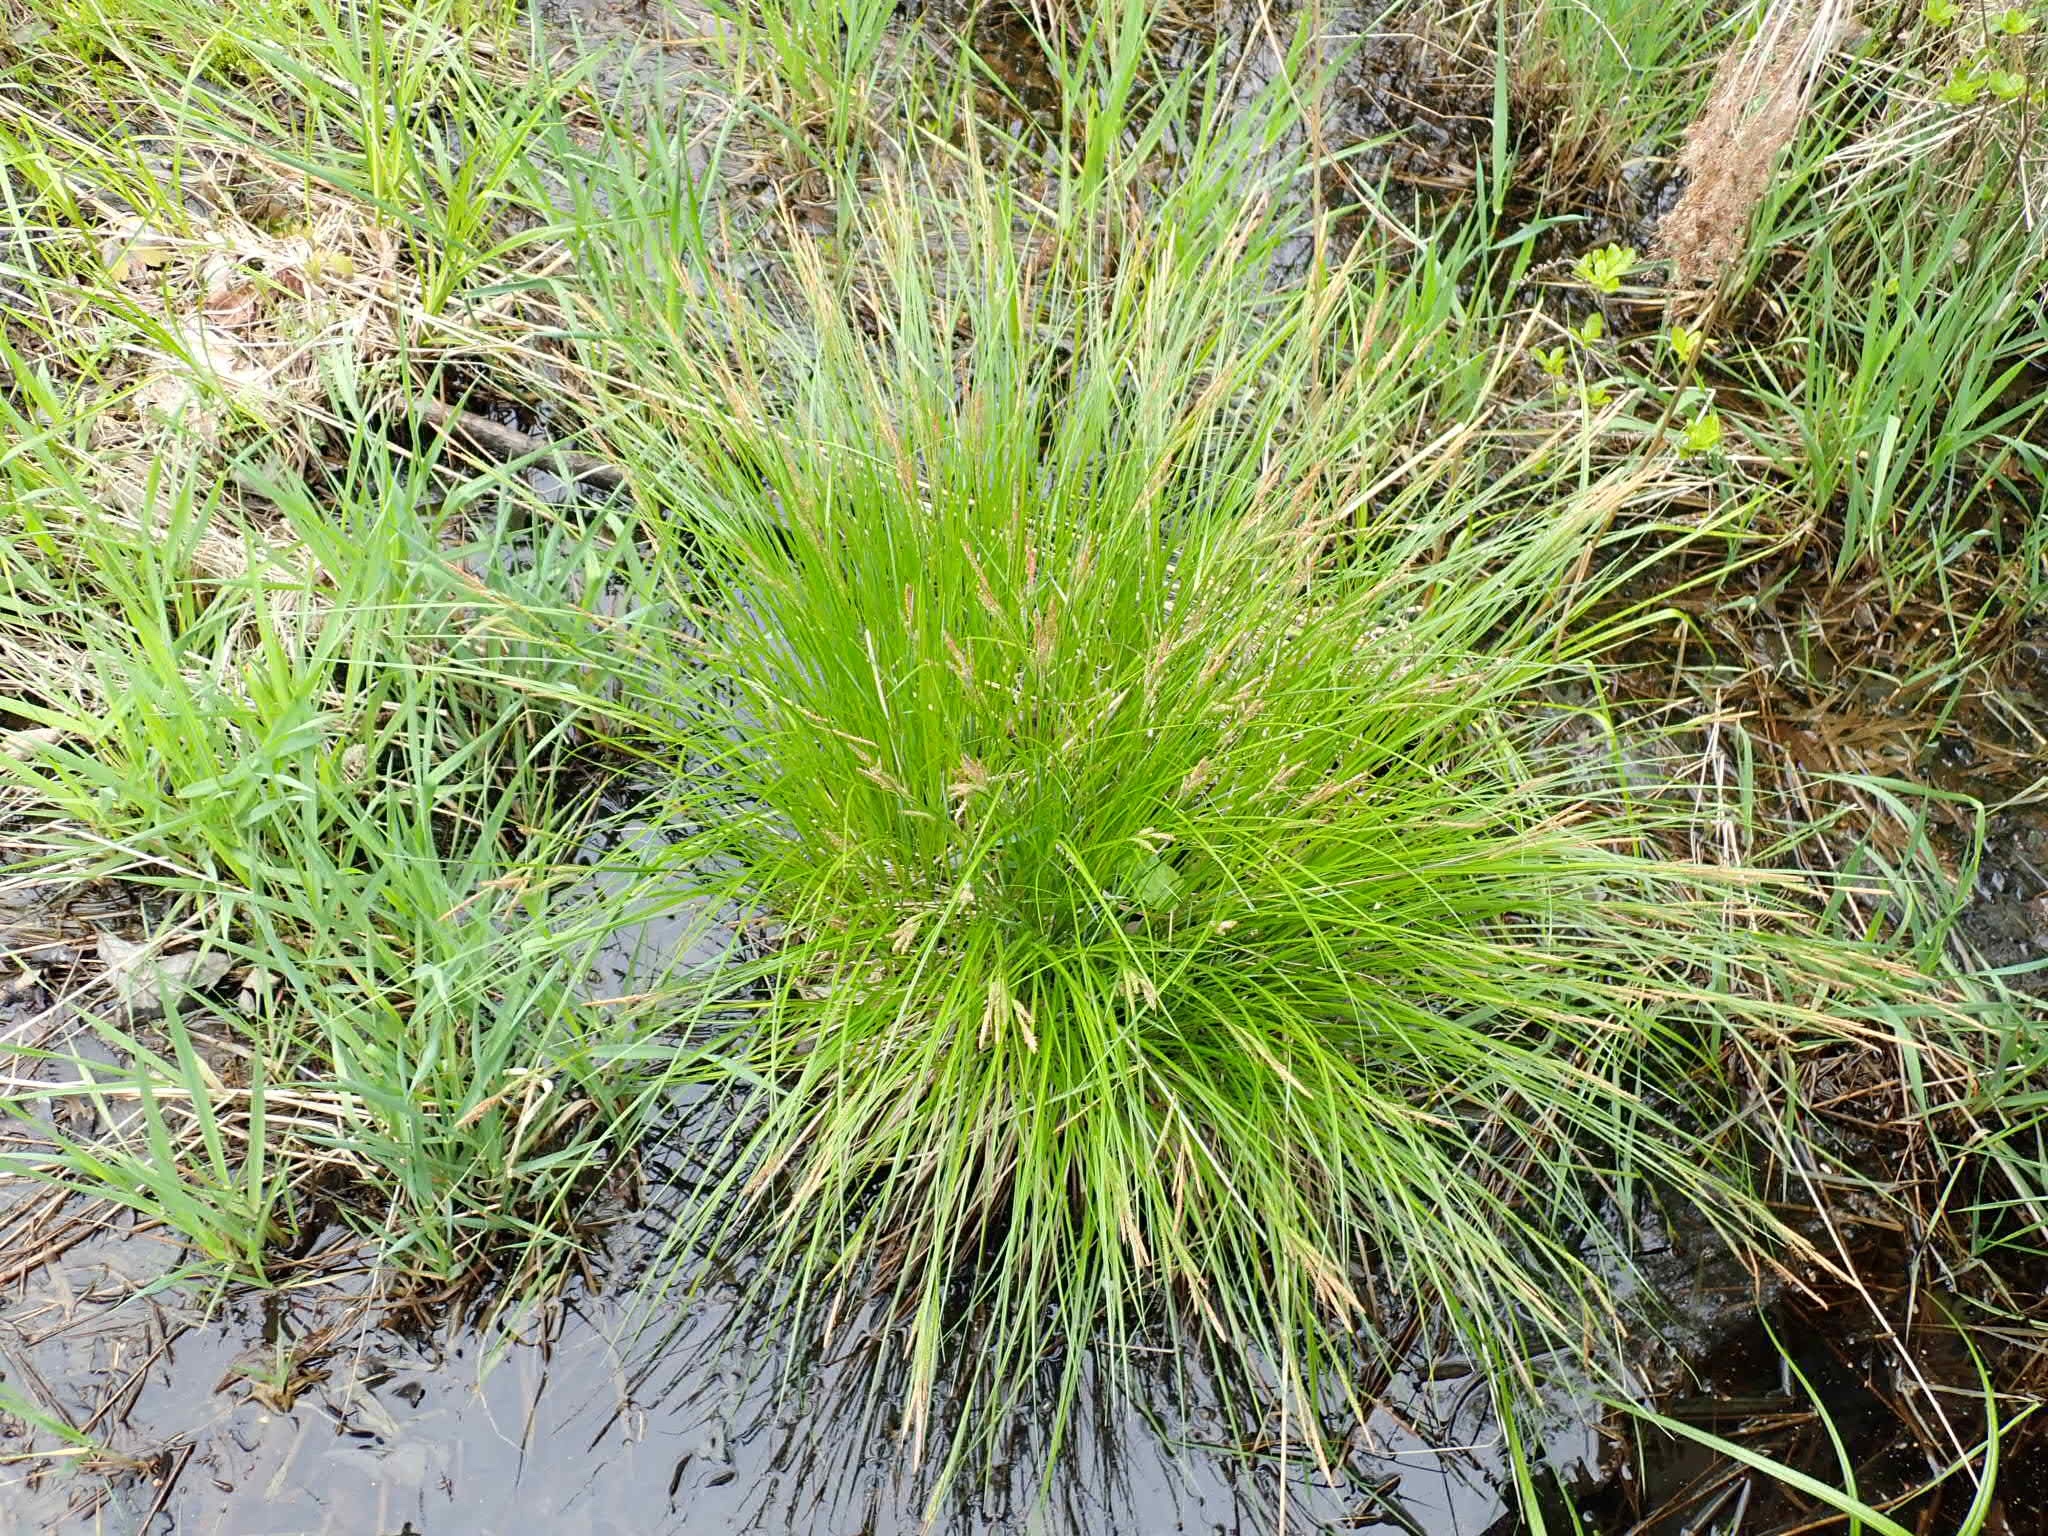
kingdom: Plantae
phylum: Tracheophyta
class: Liliopsida
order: Poales
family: Cyperaceae
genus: Carex
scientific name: Carex stricta
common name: Hummock sedge
